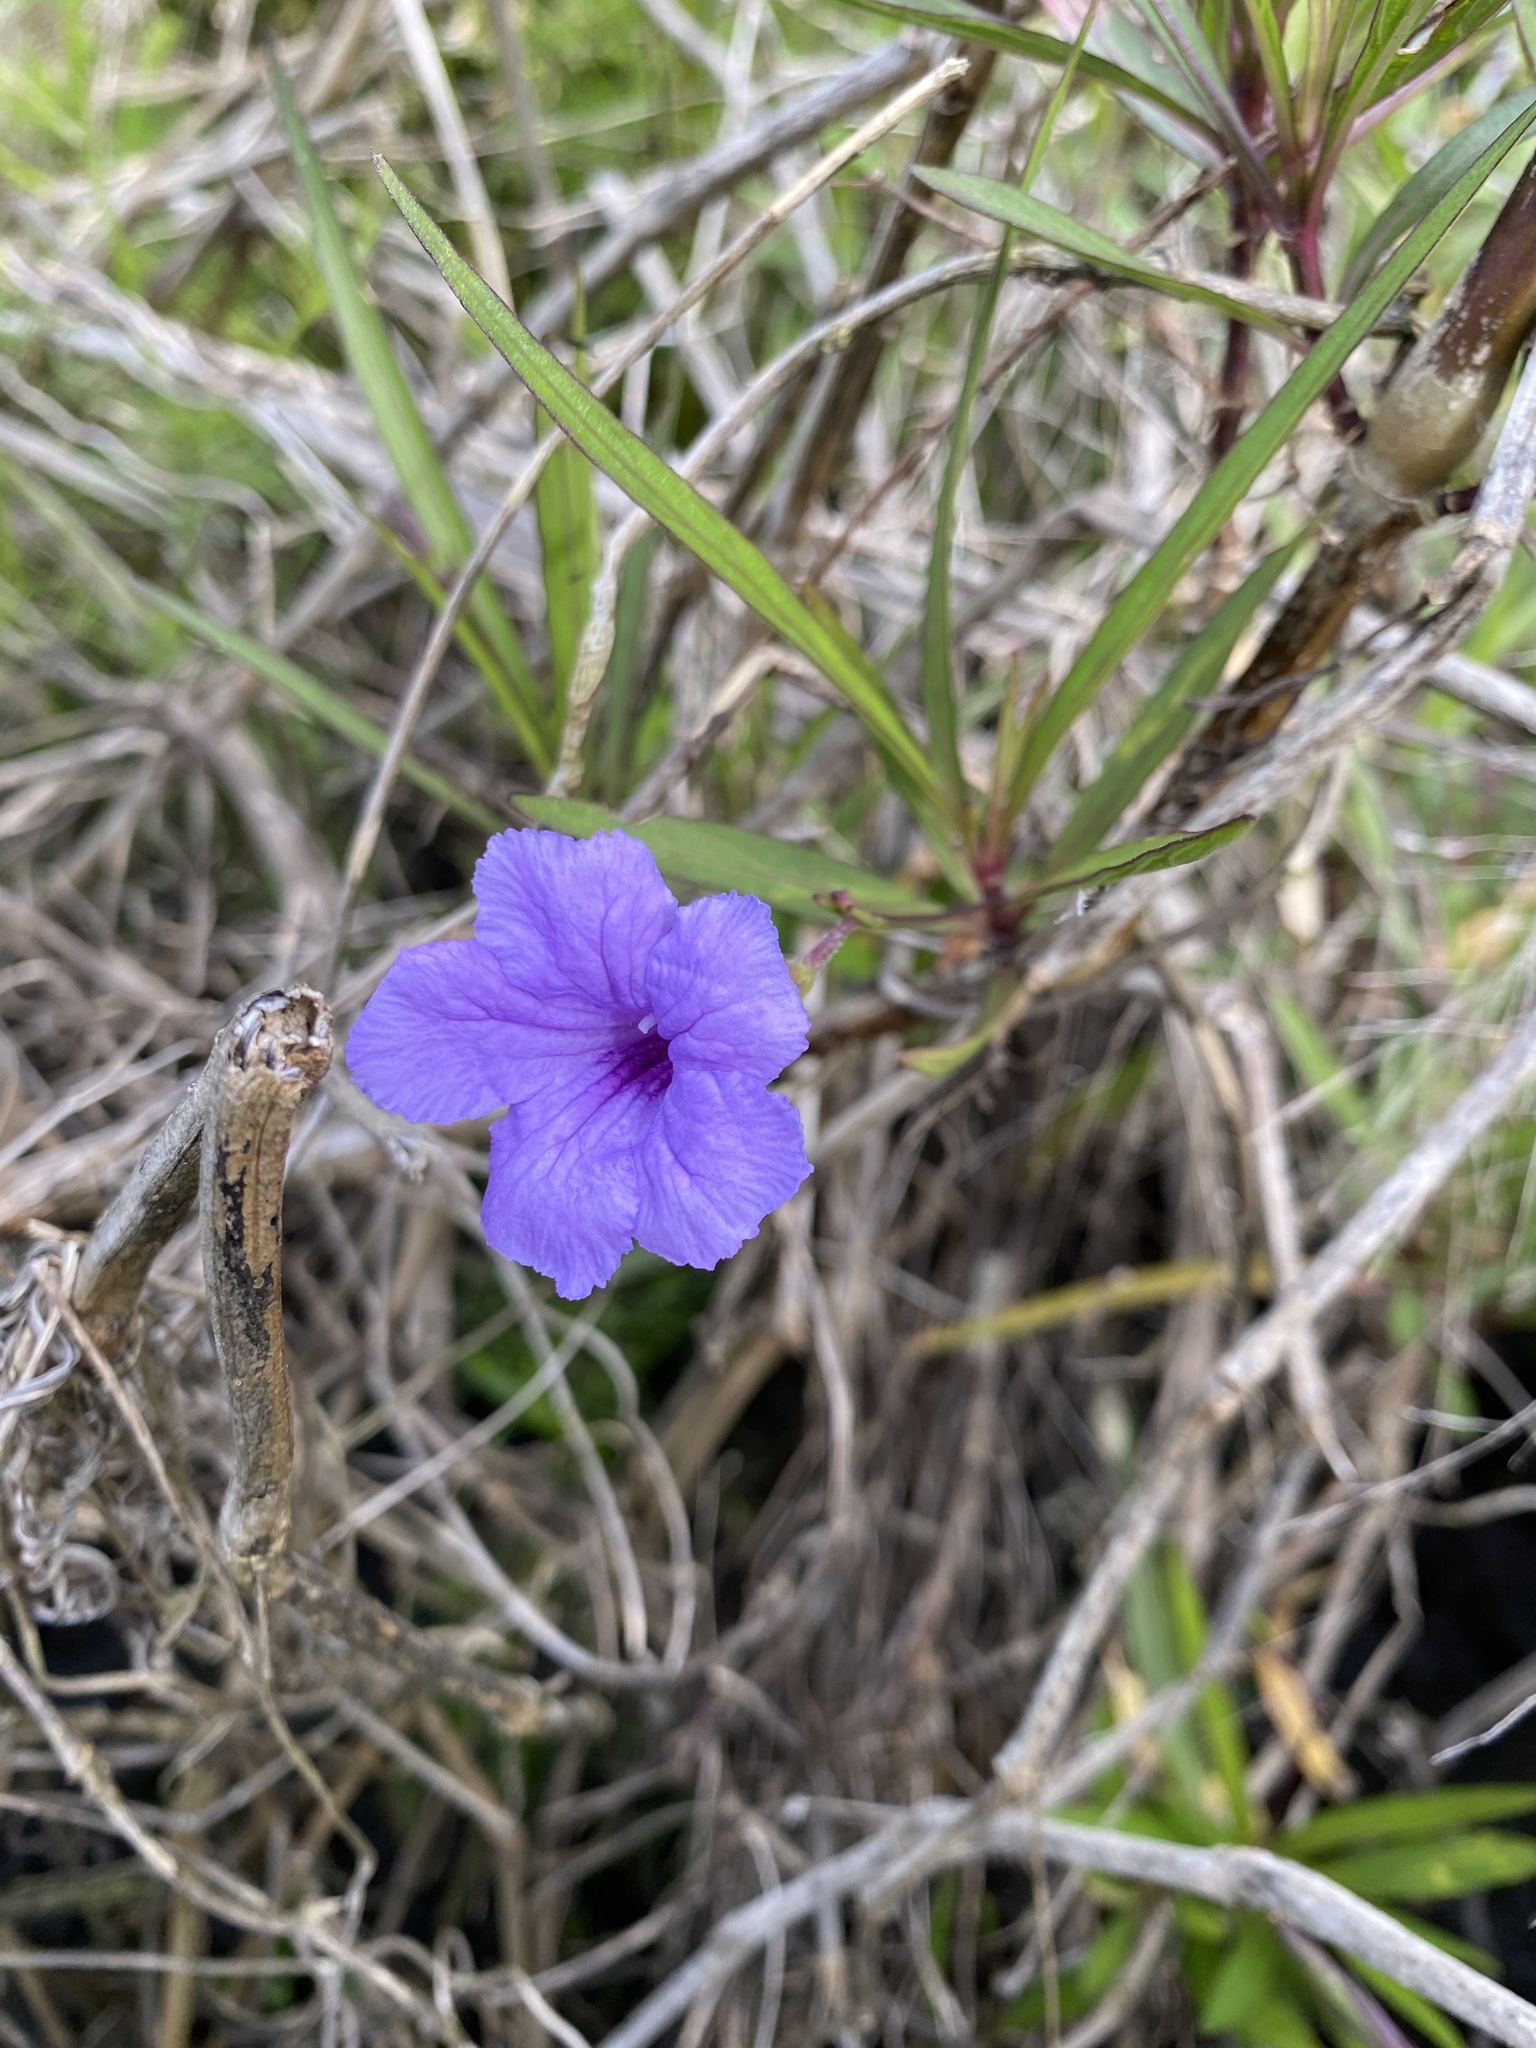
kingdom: Plantae
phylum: Tracheophyta
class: Magnoliopsida
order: Lamiales
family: Acanthaceae
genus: Ruellia
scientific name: Ruellia simplex
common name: Softseed wild petunia
